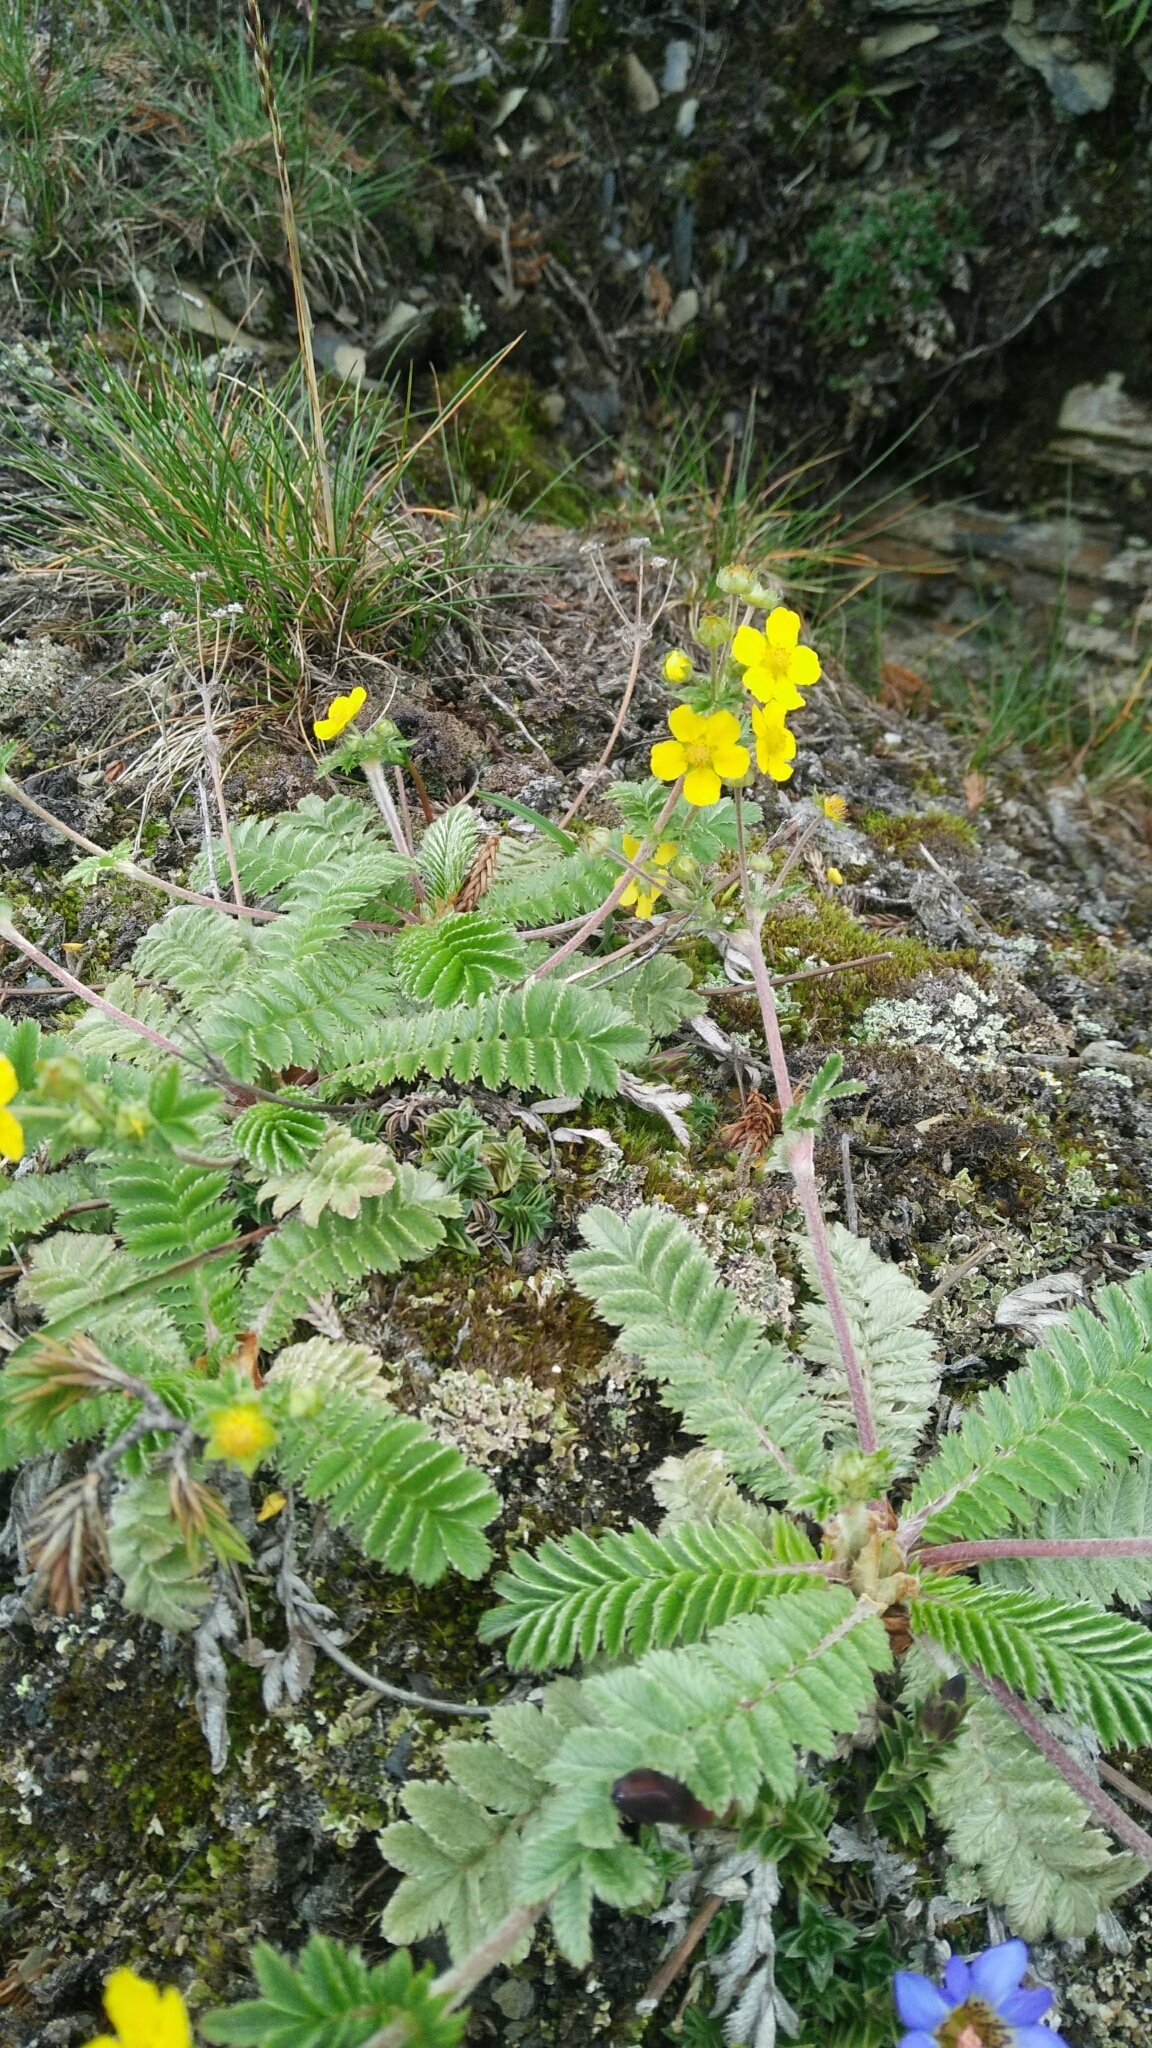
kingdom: Plantae
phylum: Tracheophyta
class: Magnoliopsida
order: Rosales
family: Rosaceae
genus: Argentina
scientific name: Argentina leuconota
